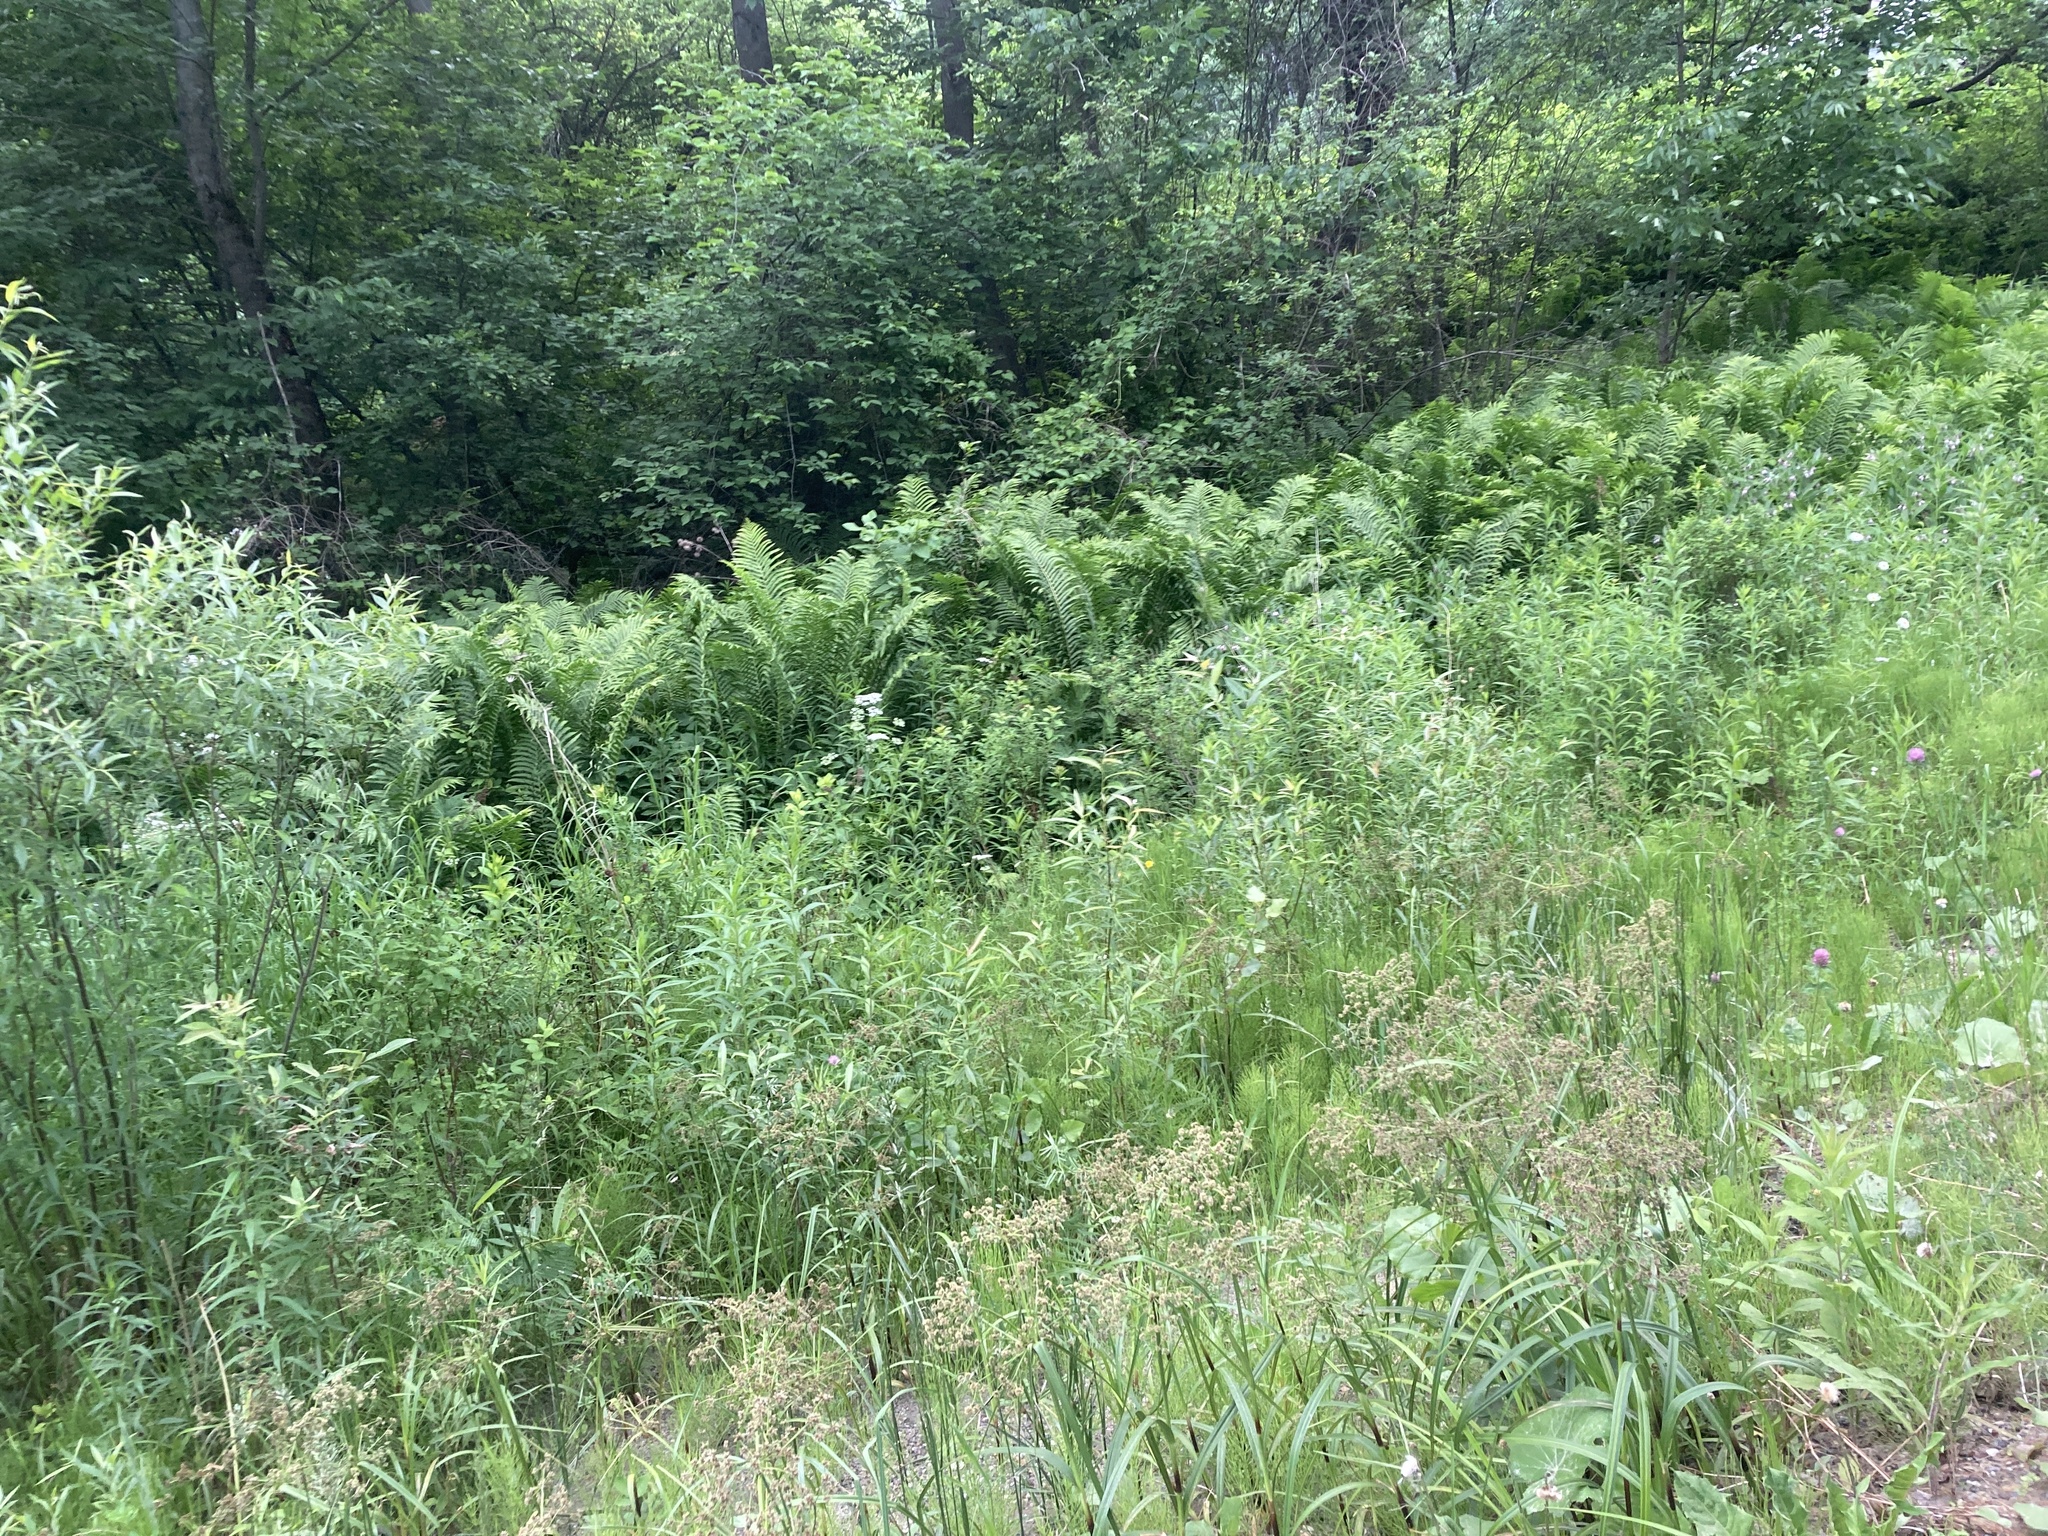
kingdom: Plantae
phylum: Tracheophyta
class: Polypodiopsida
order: Polypodiales
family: Onocleaceae
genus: Matteuccia
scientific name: Matteuccia struthiopteris
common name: Ostrich fern
